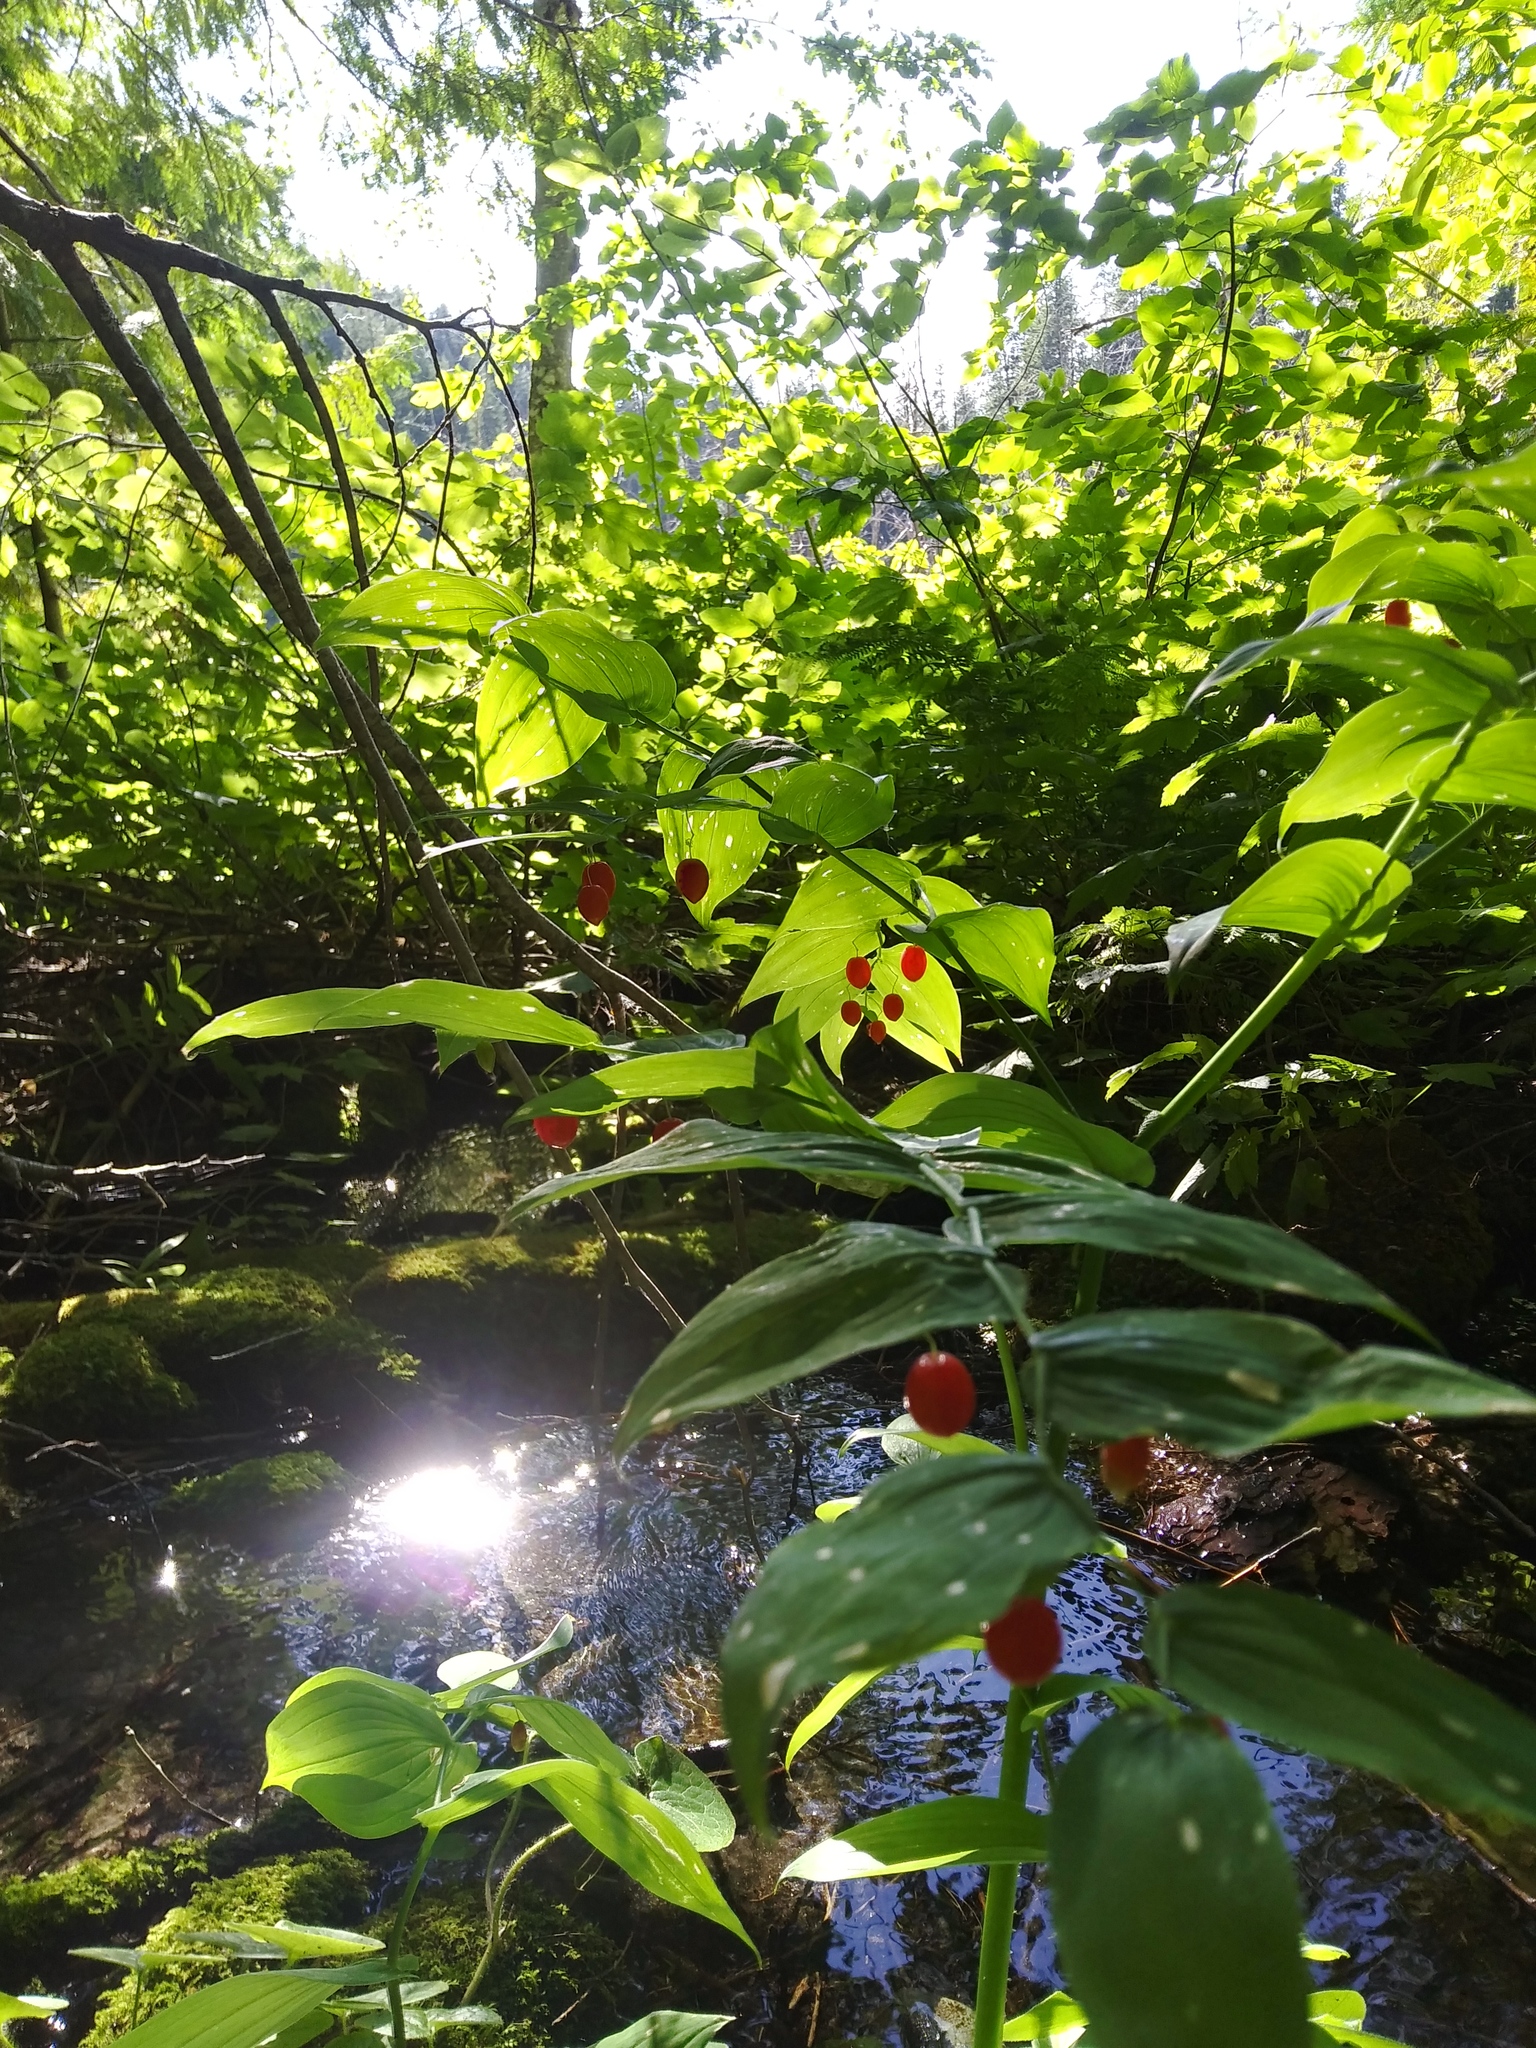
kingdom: Plantae
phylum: Tracheophyta
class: Liliopsida
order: Liliales
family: Liliaceae
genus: Streptopus
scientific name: Streptopus amplexifolius
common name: Clasp twisted stalk
